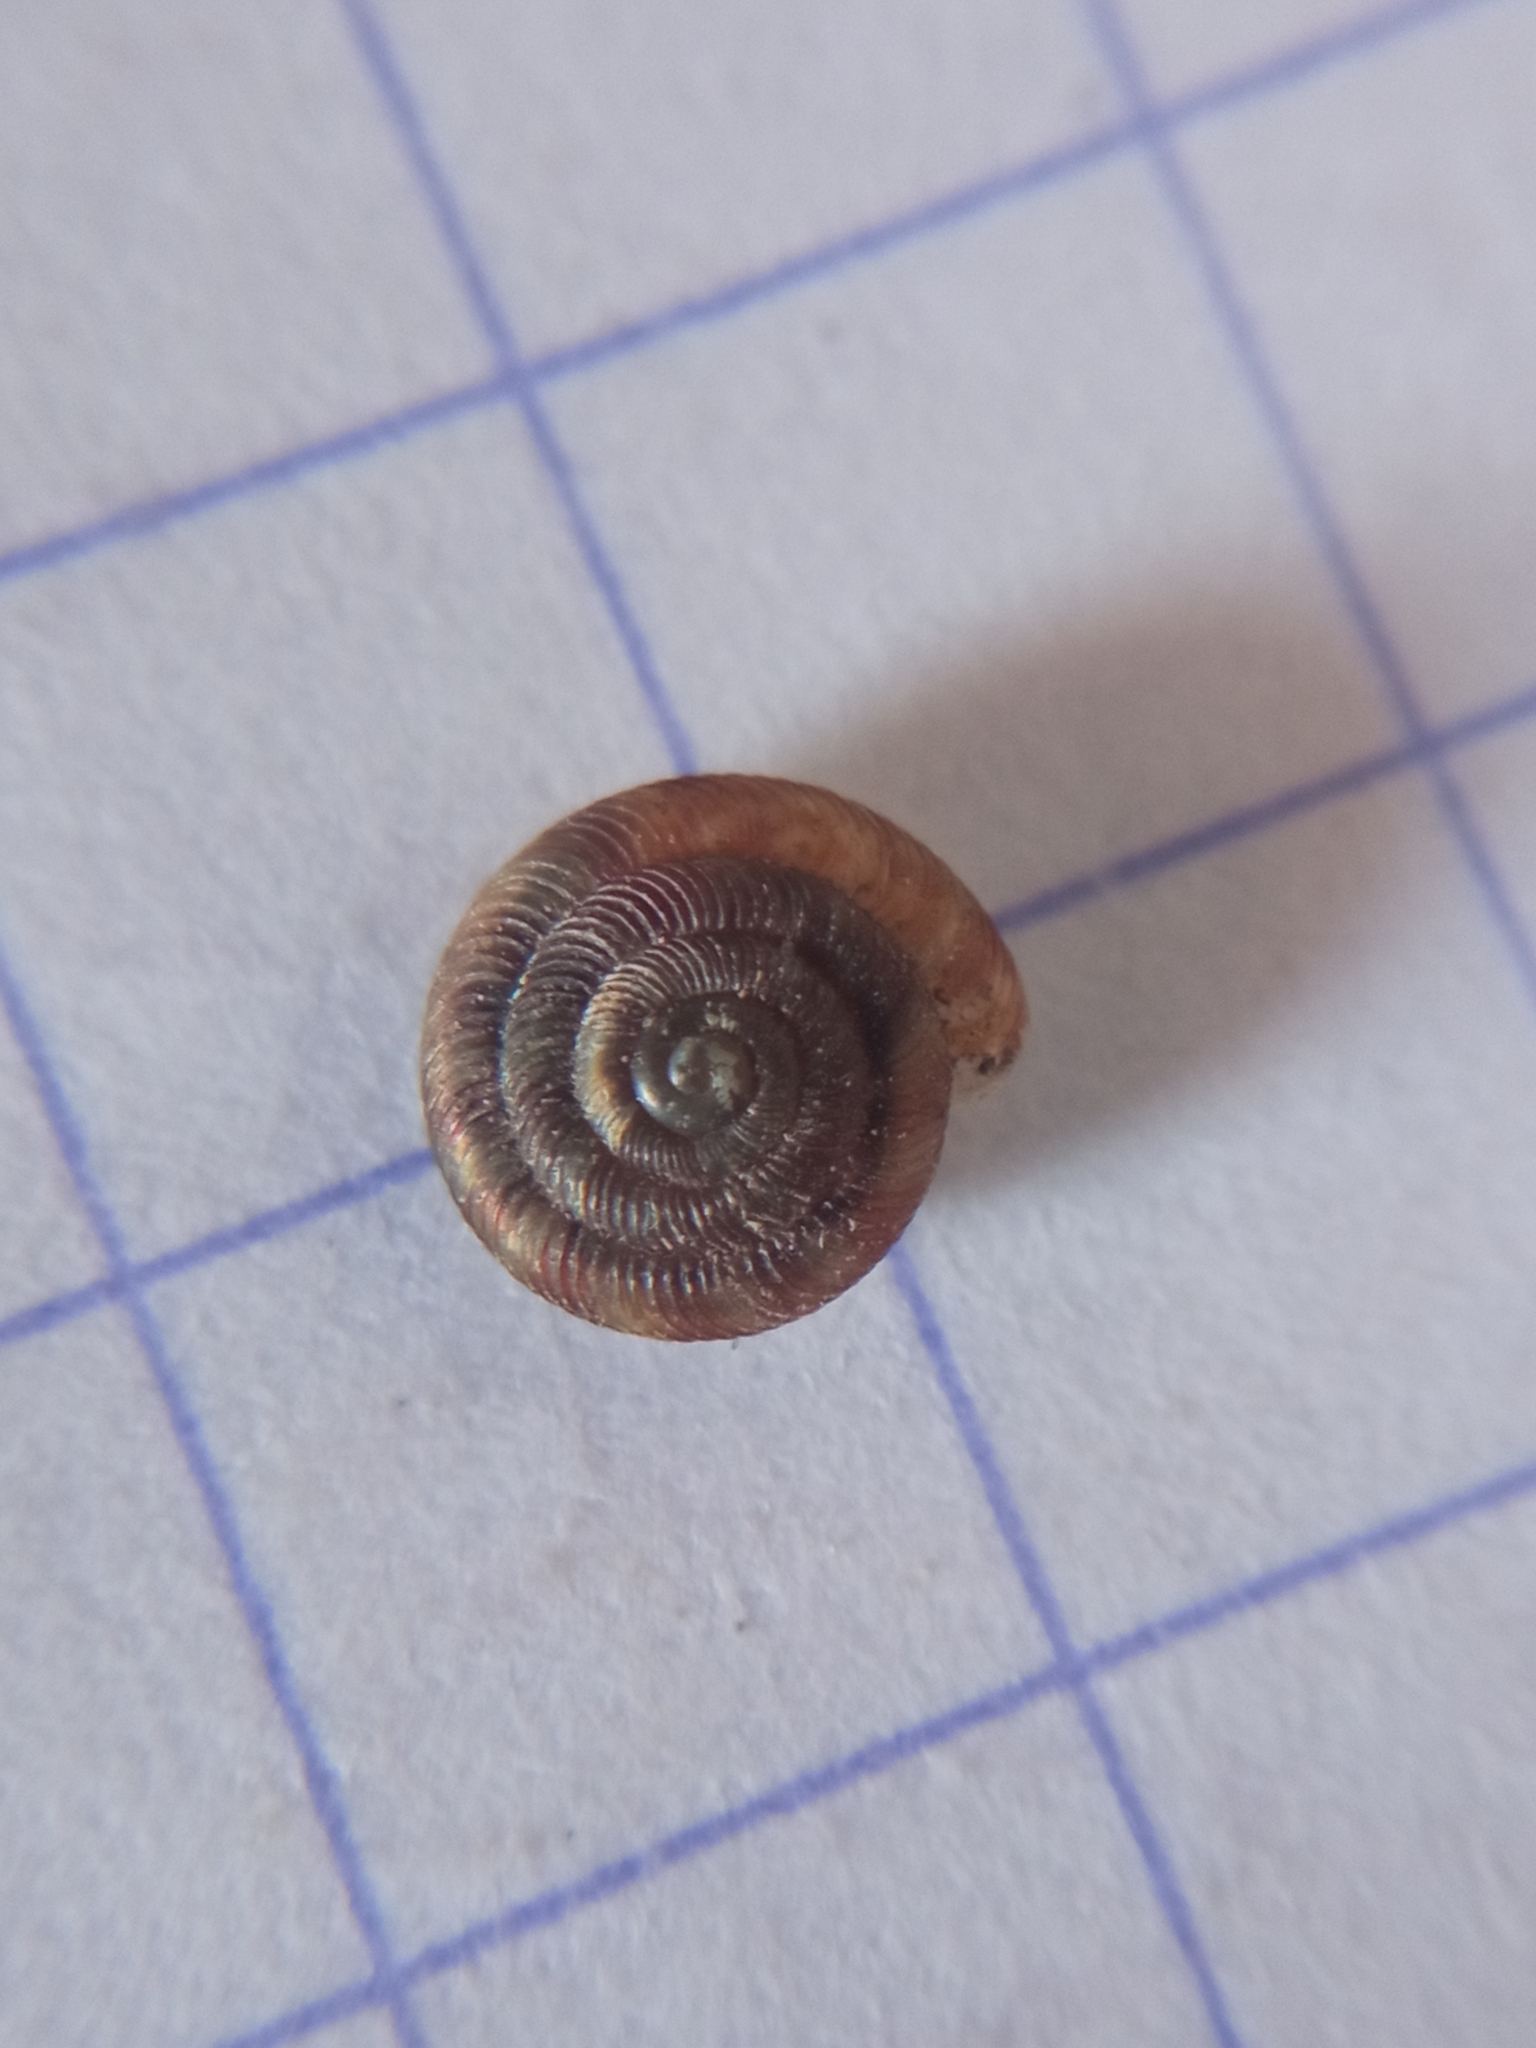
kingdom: Animalia
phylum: Mollusca
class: Gastropoda
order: Stylommatophora
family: Discidae
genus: Discus
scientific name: Discus rotundatus
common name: Rounded snail
